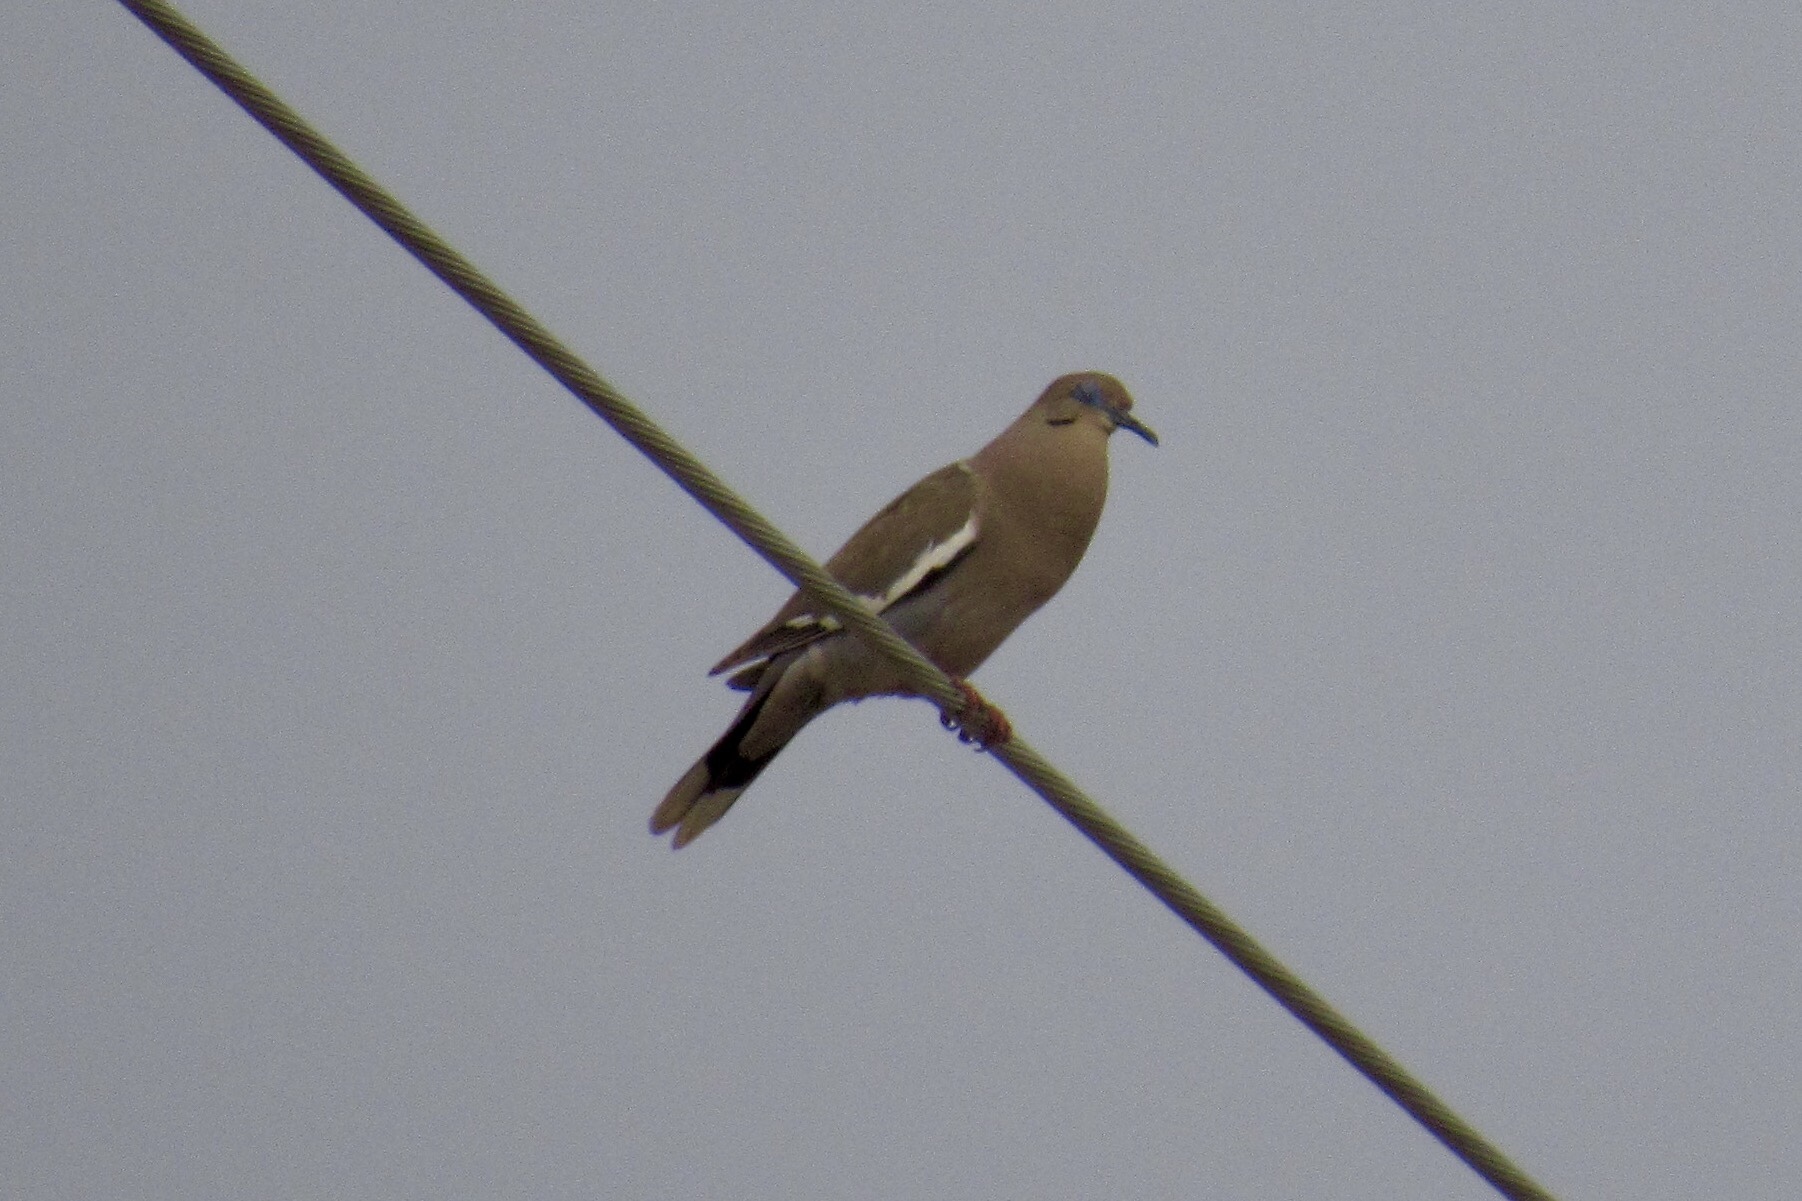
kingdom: Animalia
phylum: Chordata
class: Aves
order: Columbiformes
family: Columbidae
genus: Zenaida
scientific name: Zenaida asiatica
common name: White-winged dove
